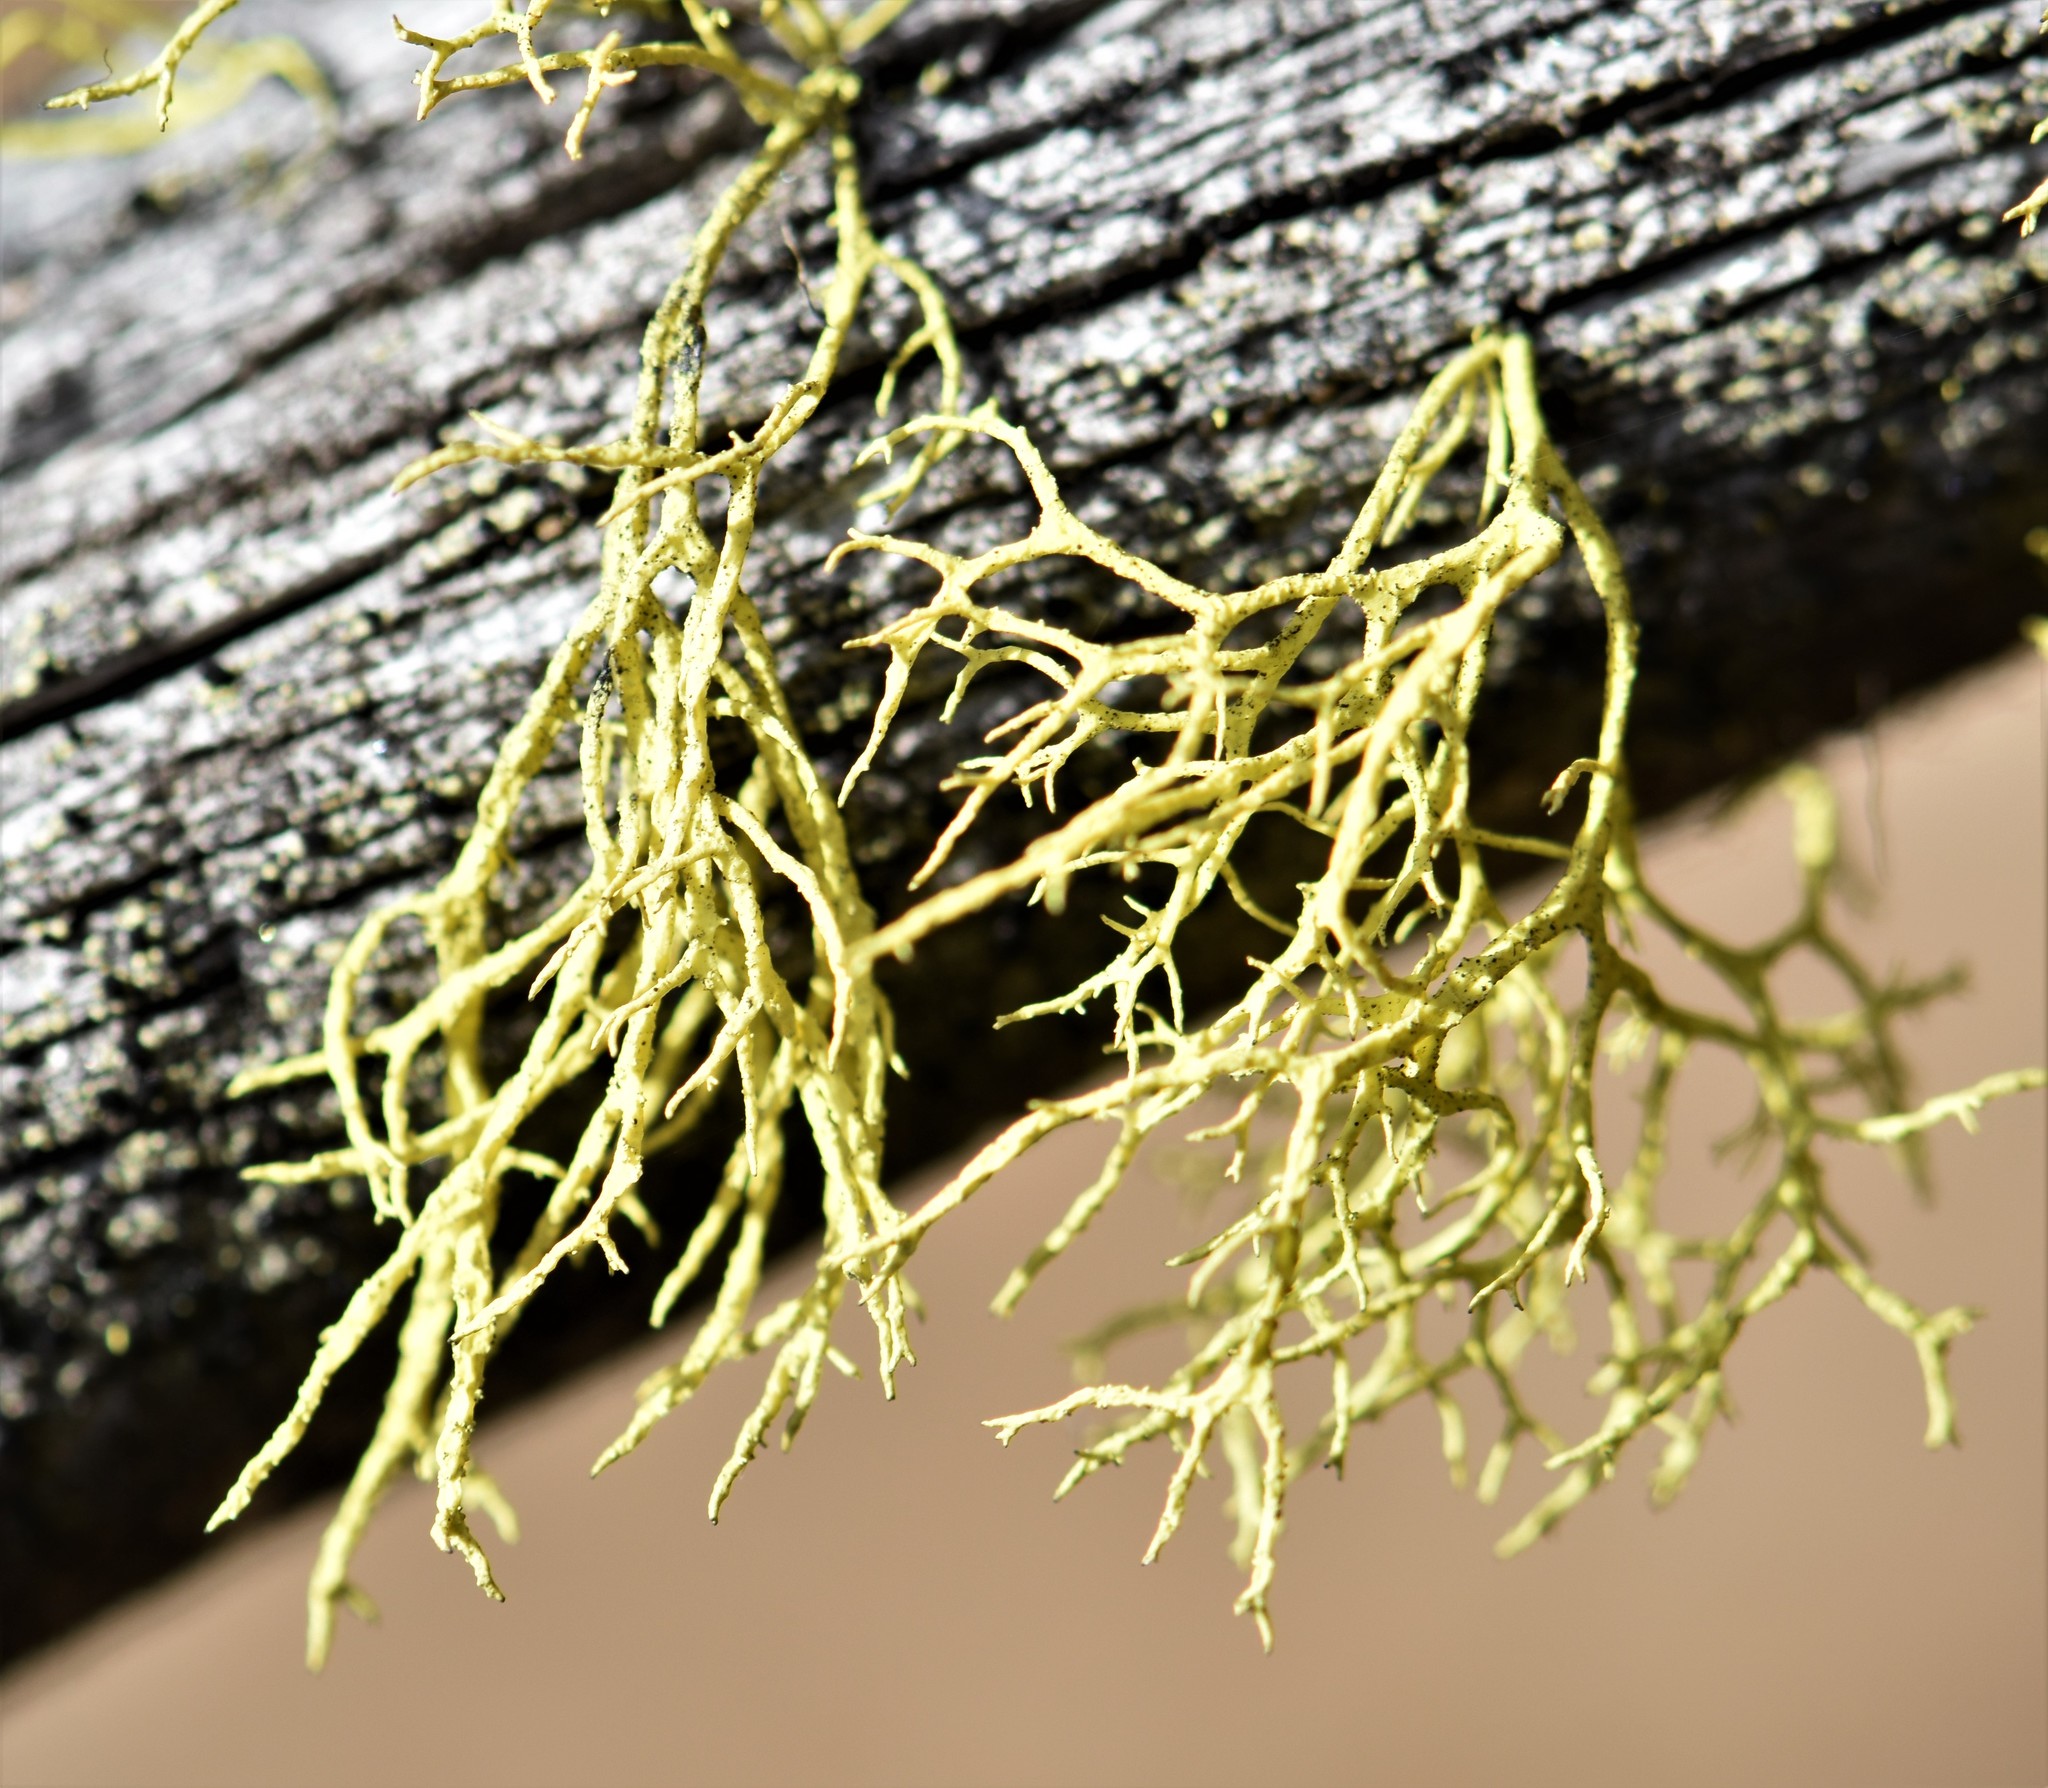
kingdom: Fungi
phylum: Ascomycota
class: Lecanoromycetes
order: Lecanorales
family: Parmeliaceae
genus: Letharia
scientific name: Letharia vulpina
